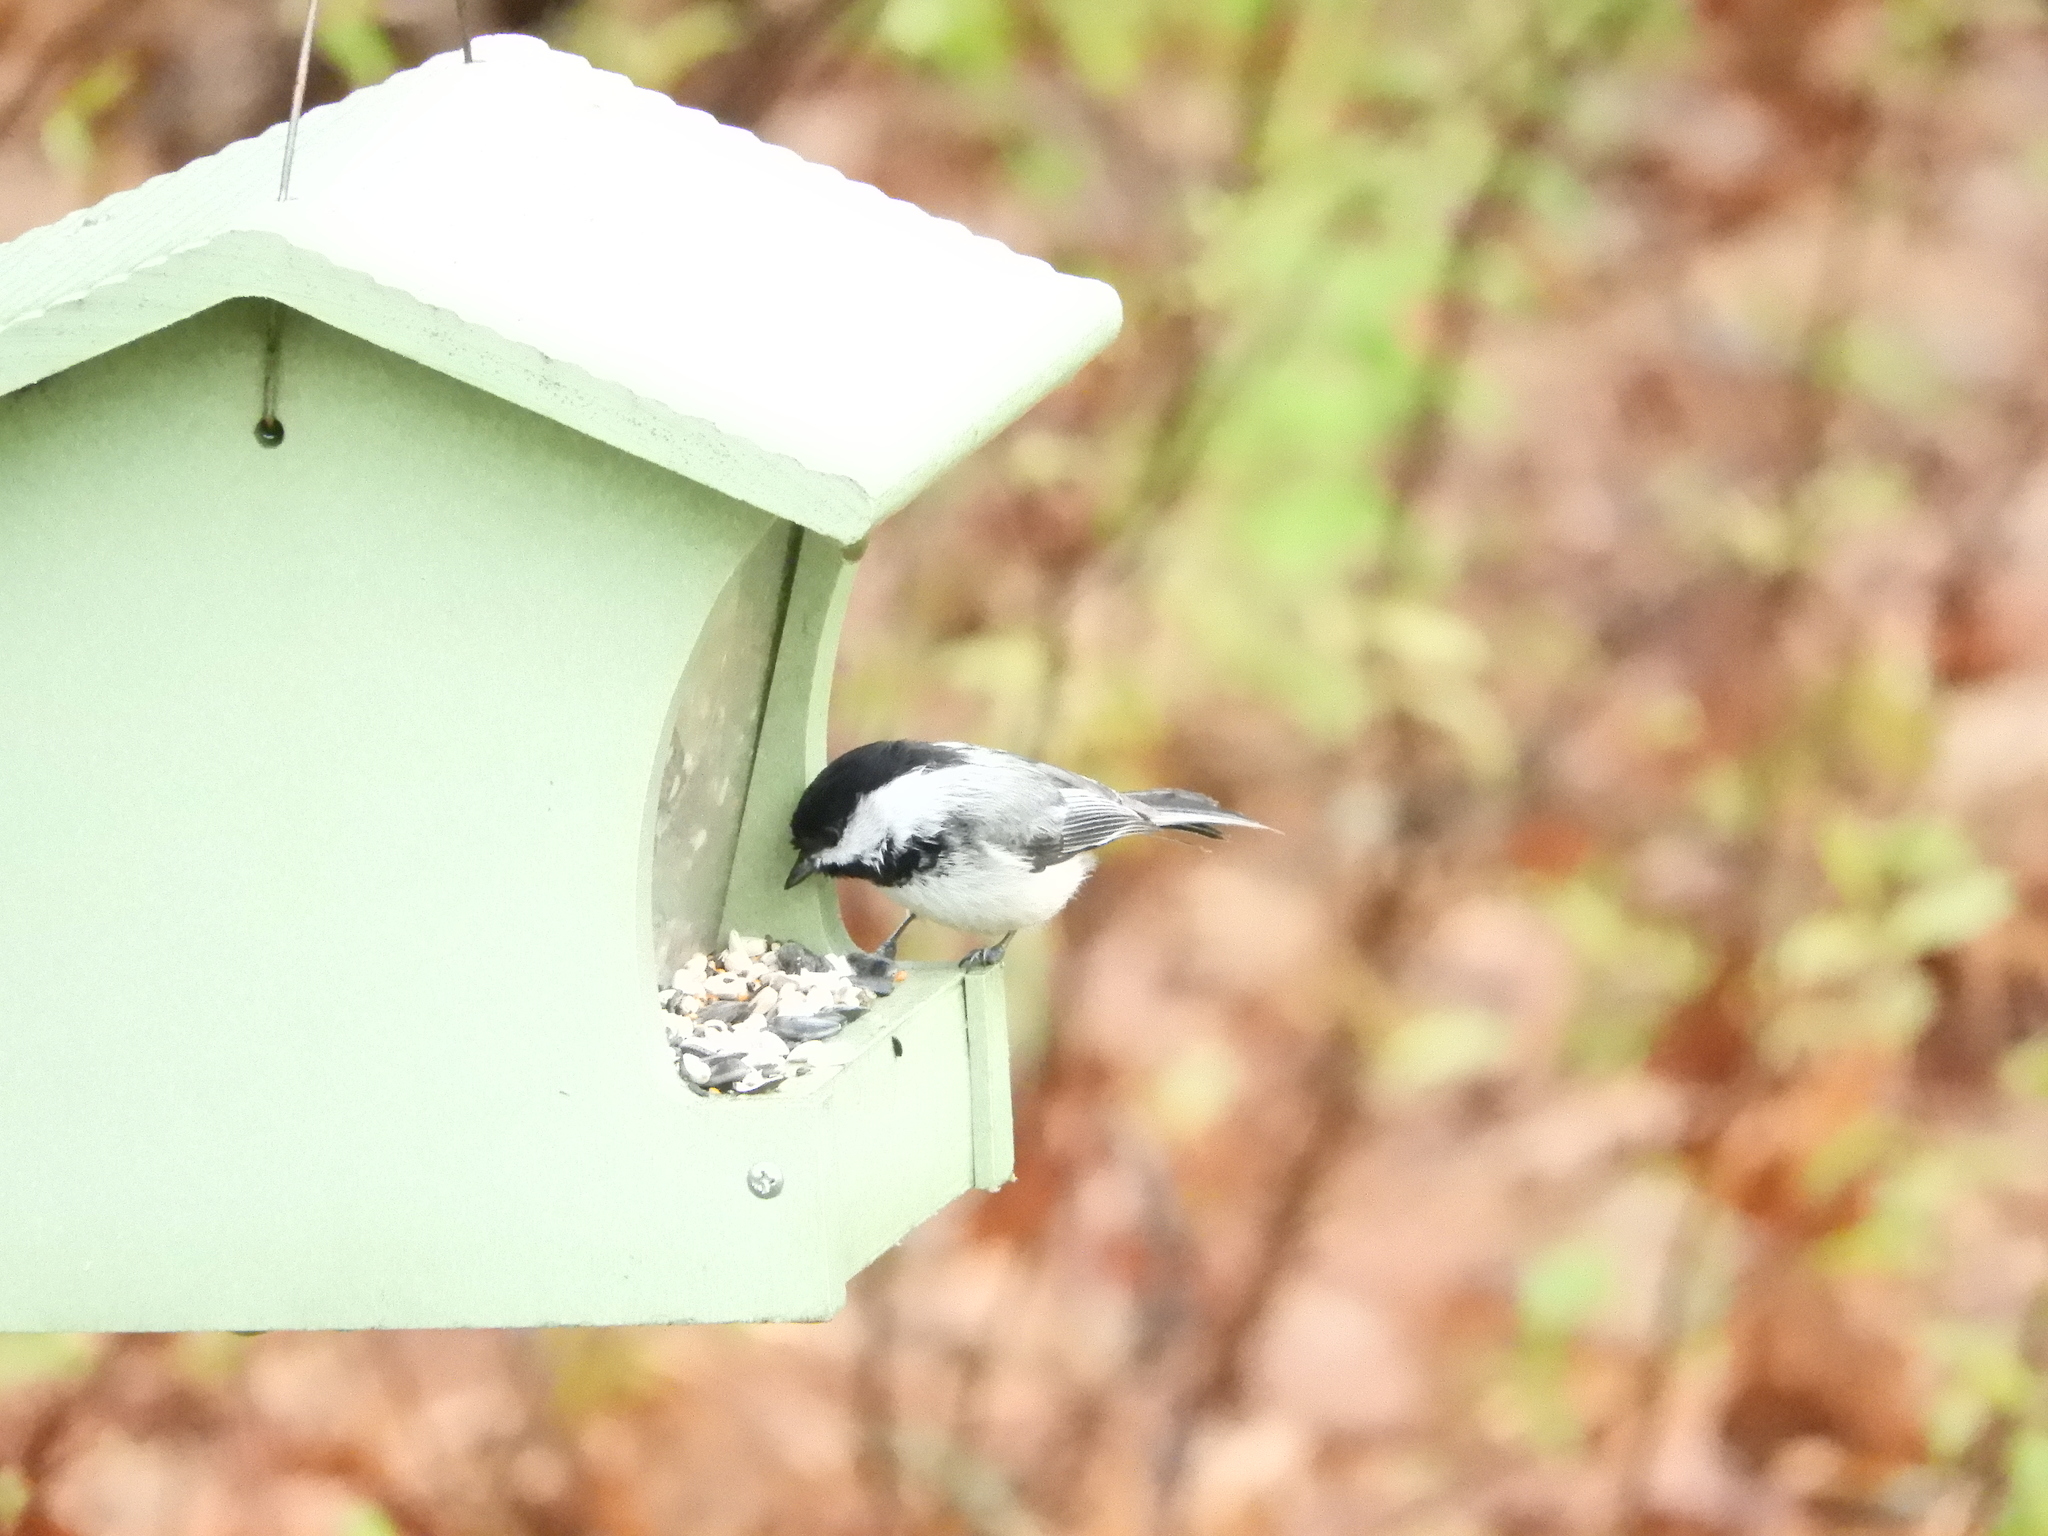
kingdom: Animalia
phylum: Chordata
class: Aves
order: Passeriformes
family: Paridae
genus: Poecile
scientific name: Poecile atricapillus
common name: Black-capped chickadee
